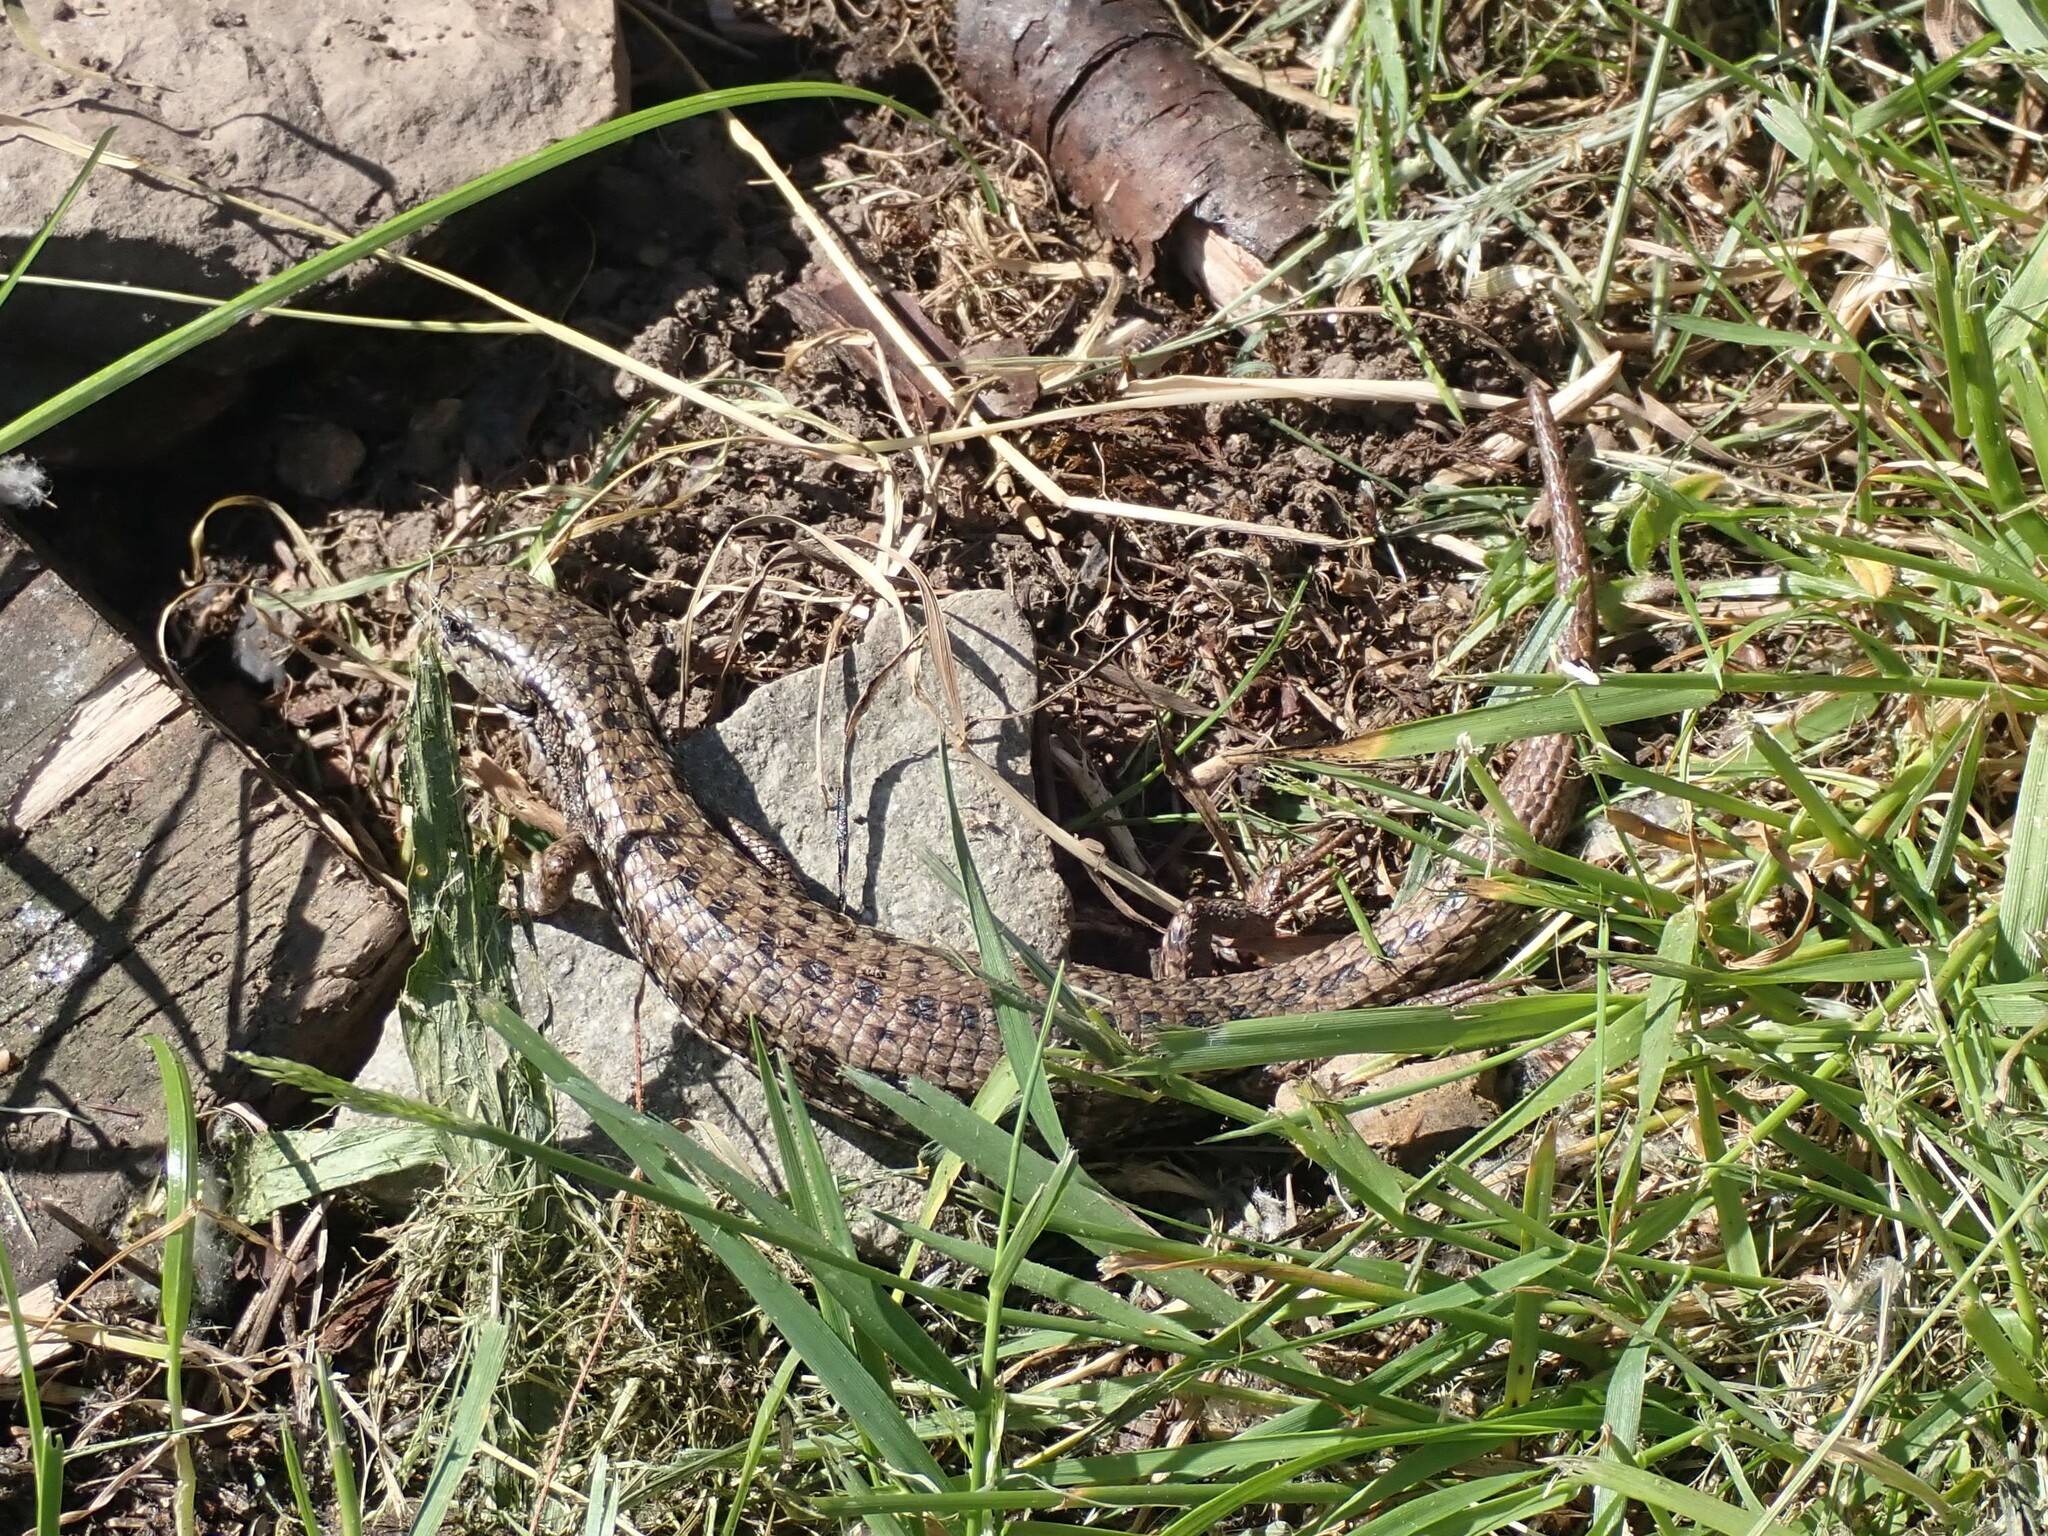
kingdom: Animalia
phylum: Chordata
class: Squamata
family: Anguidae
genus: Elgaria
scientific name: Elgaria coerulea
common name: Northern alligator lizard
